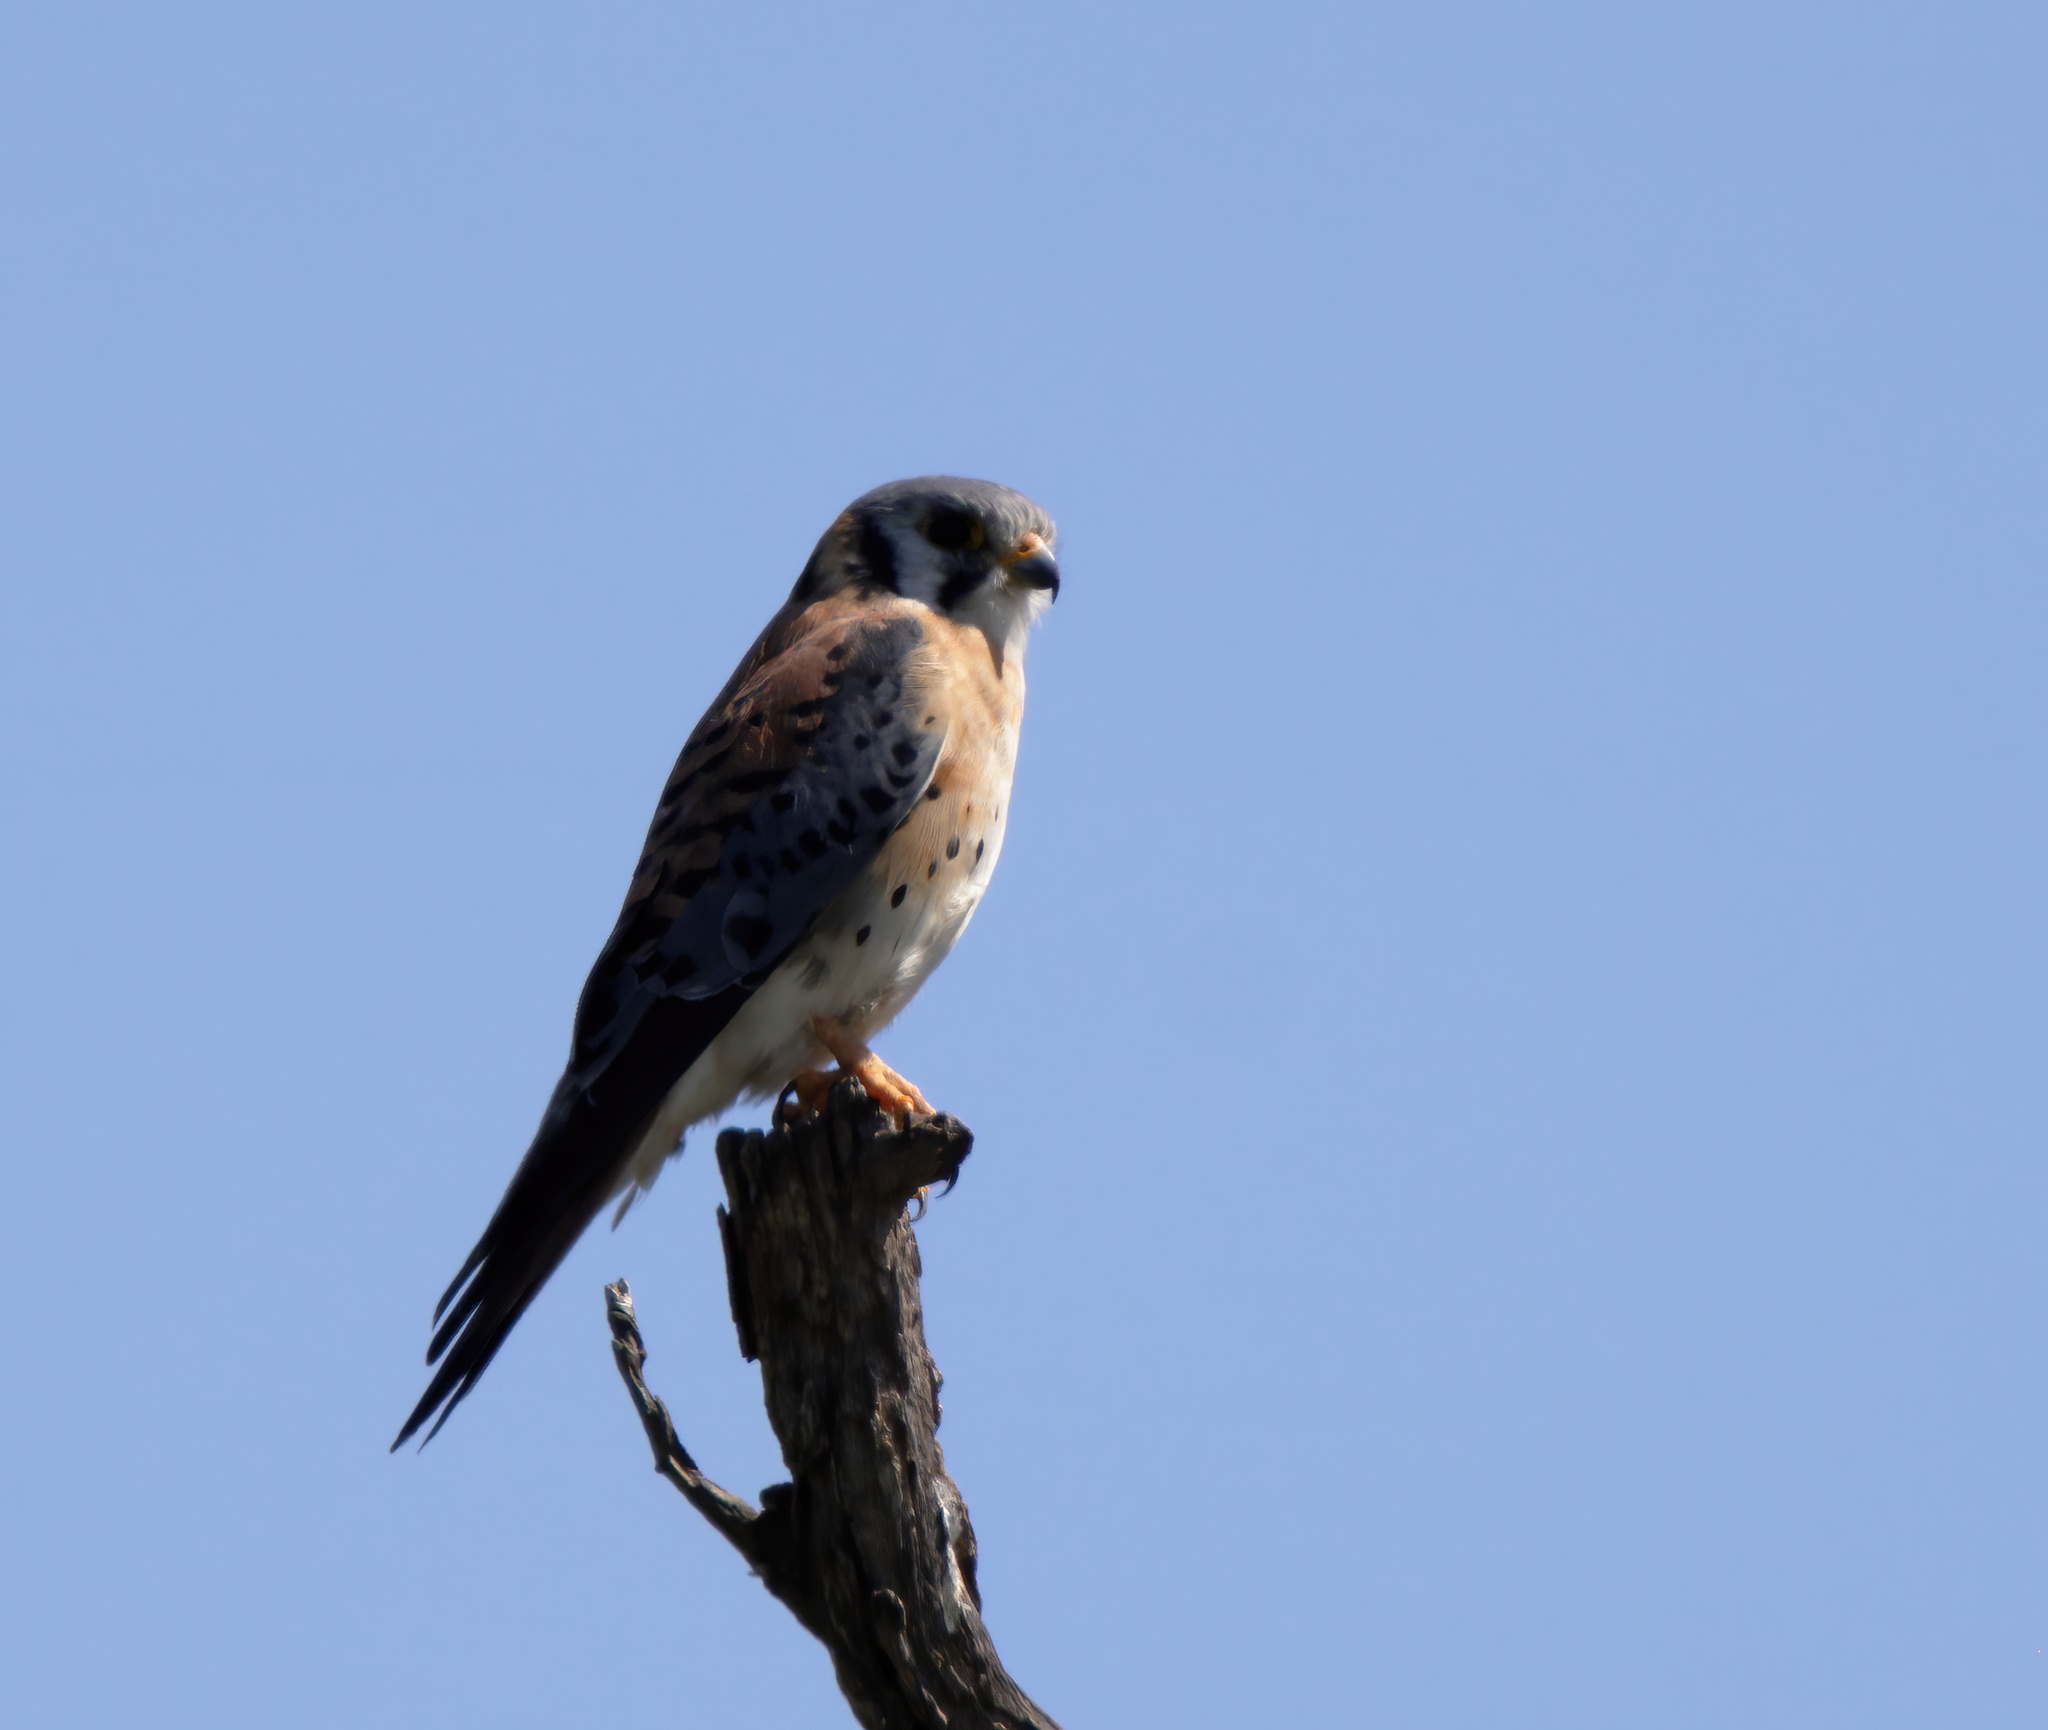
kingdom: Animalia
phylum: Chordata
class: Aves
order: Falconiformes
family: Falconidae
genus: Falco
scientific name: Falco sparverius
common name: American kestrel
